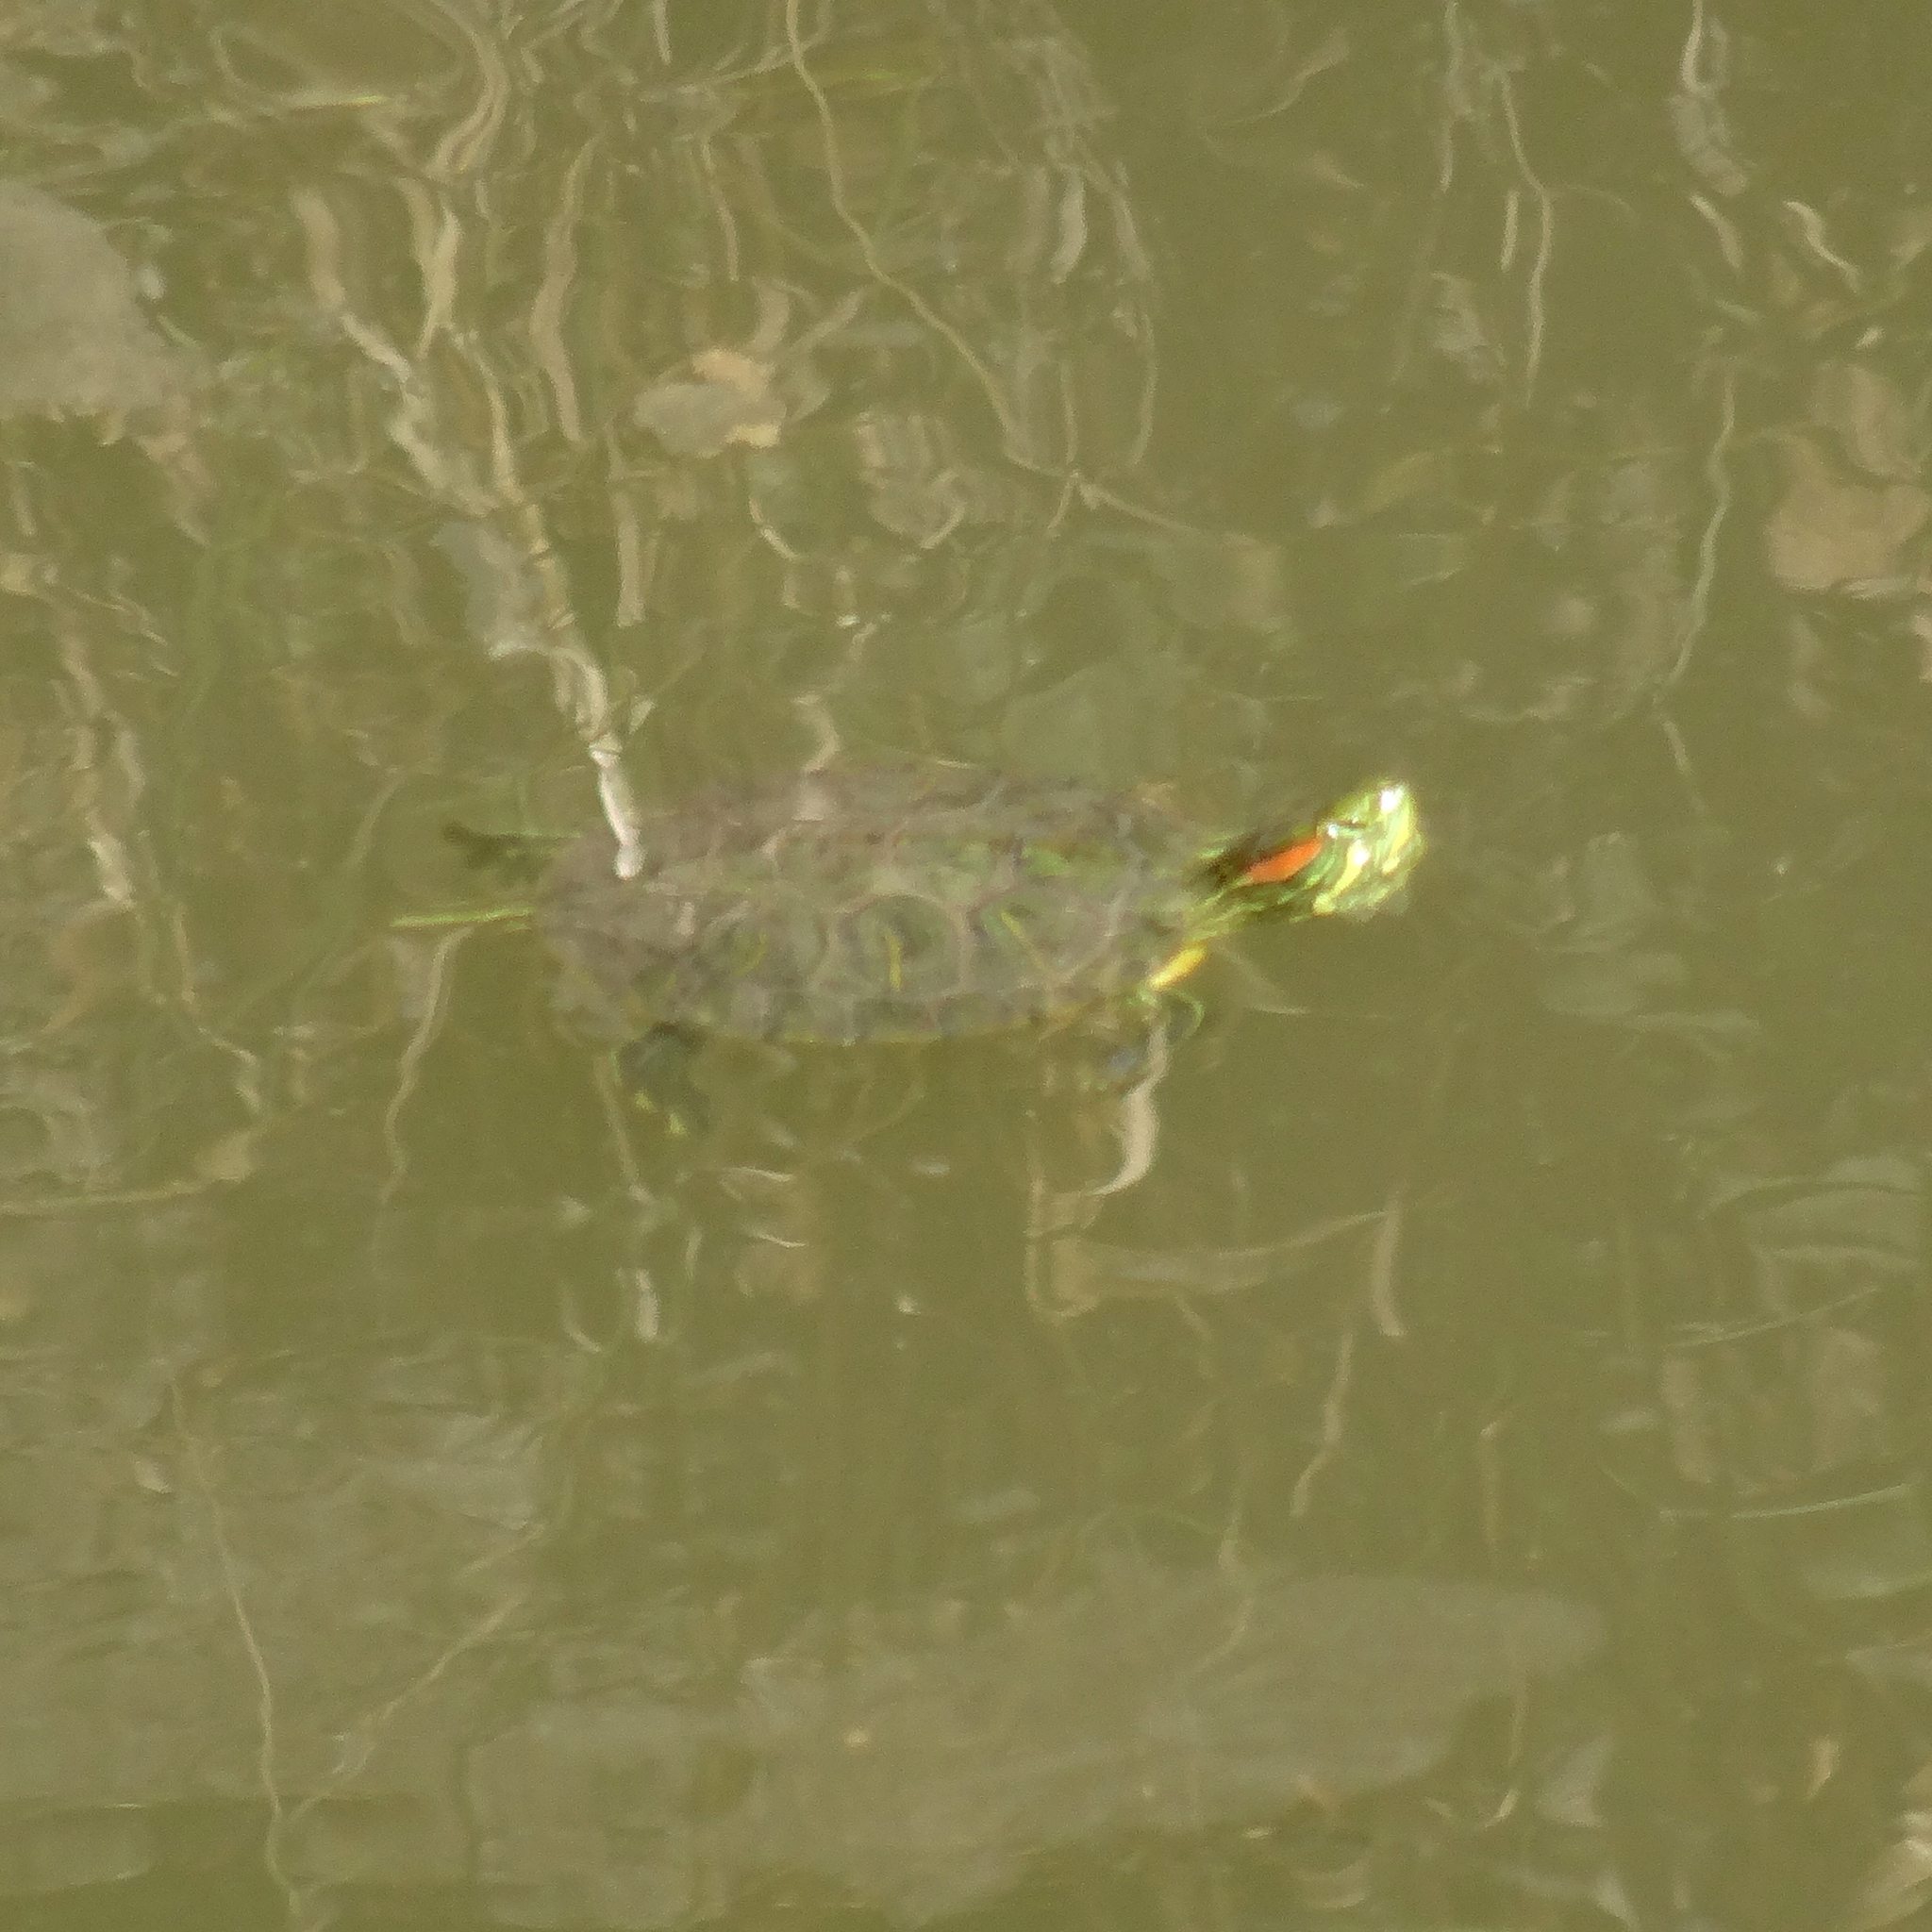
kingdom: Animalia
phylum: Chordata
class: Testudines
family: Emydidae
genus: Trachemys
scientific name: Trachemys scripta
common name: Slider
